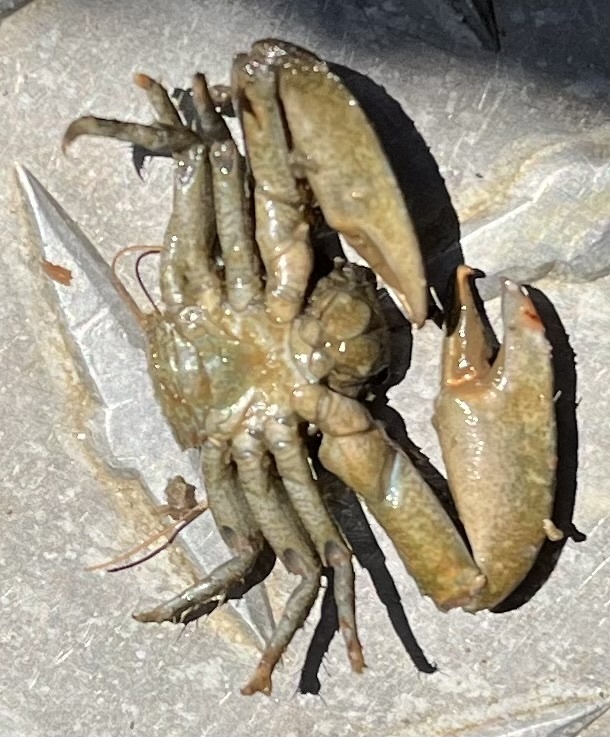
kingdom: Animalia
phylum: Arthropoda
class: Malacostraca
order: Decapoda
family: Porcellanidae
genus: Petrolisthes
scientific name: Petrolisthes armatus
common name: Green porcelain crab
